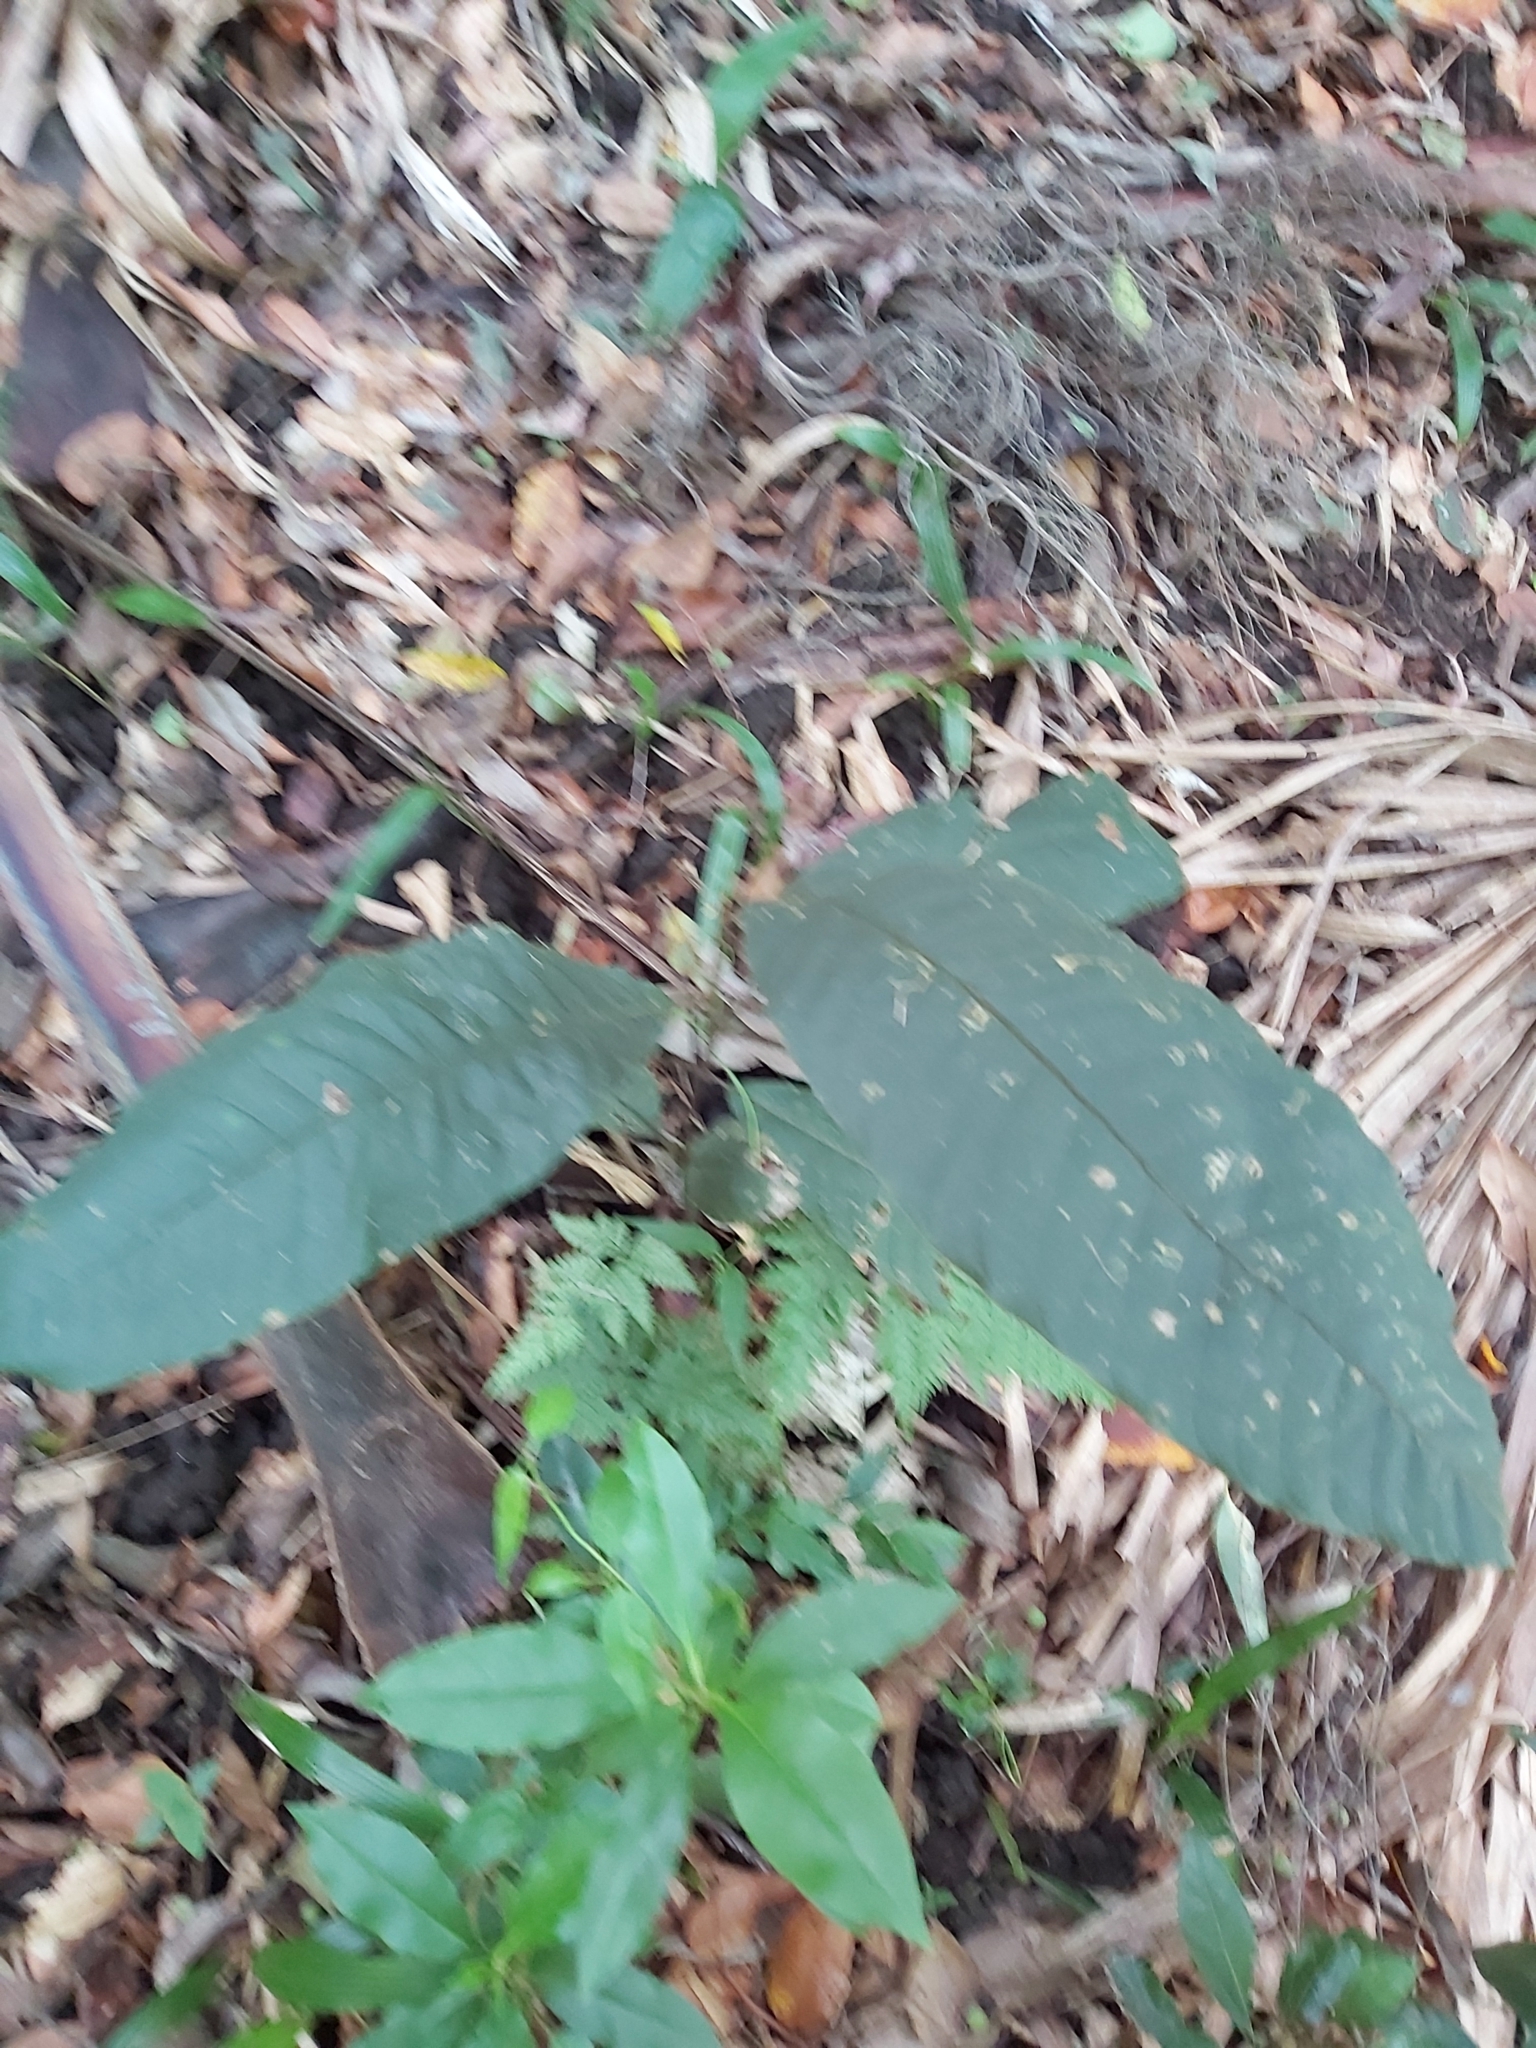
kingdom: Plantae
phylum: Tracheophyta
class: Magnoliopsida
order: Sapindales
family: Sapindaceae
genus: Diploglottis
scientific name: Diploglottis australis
